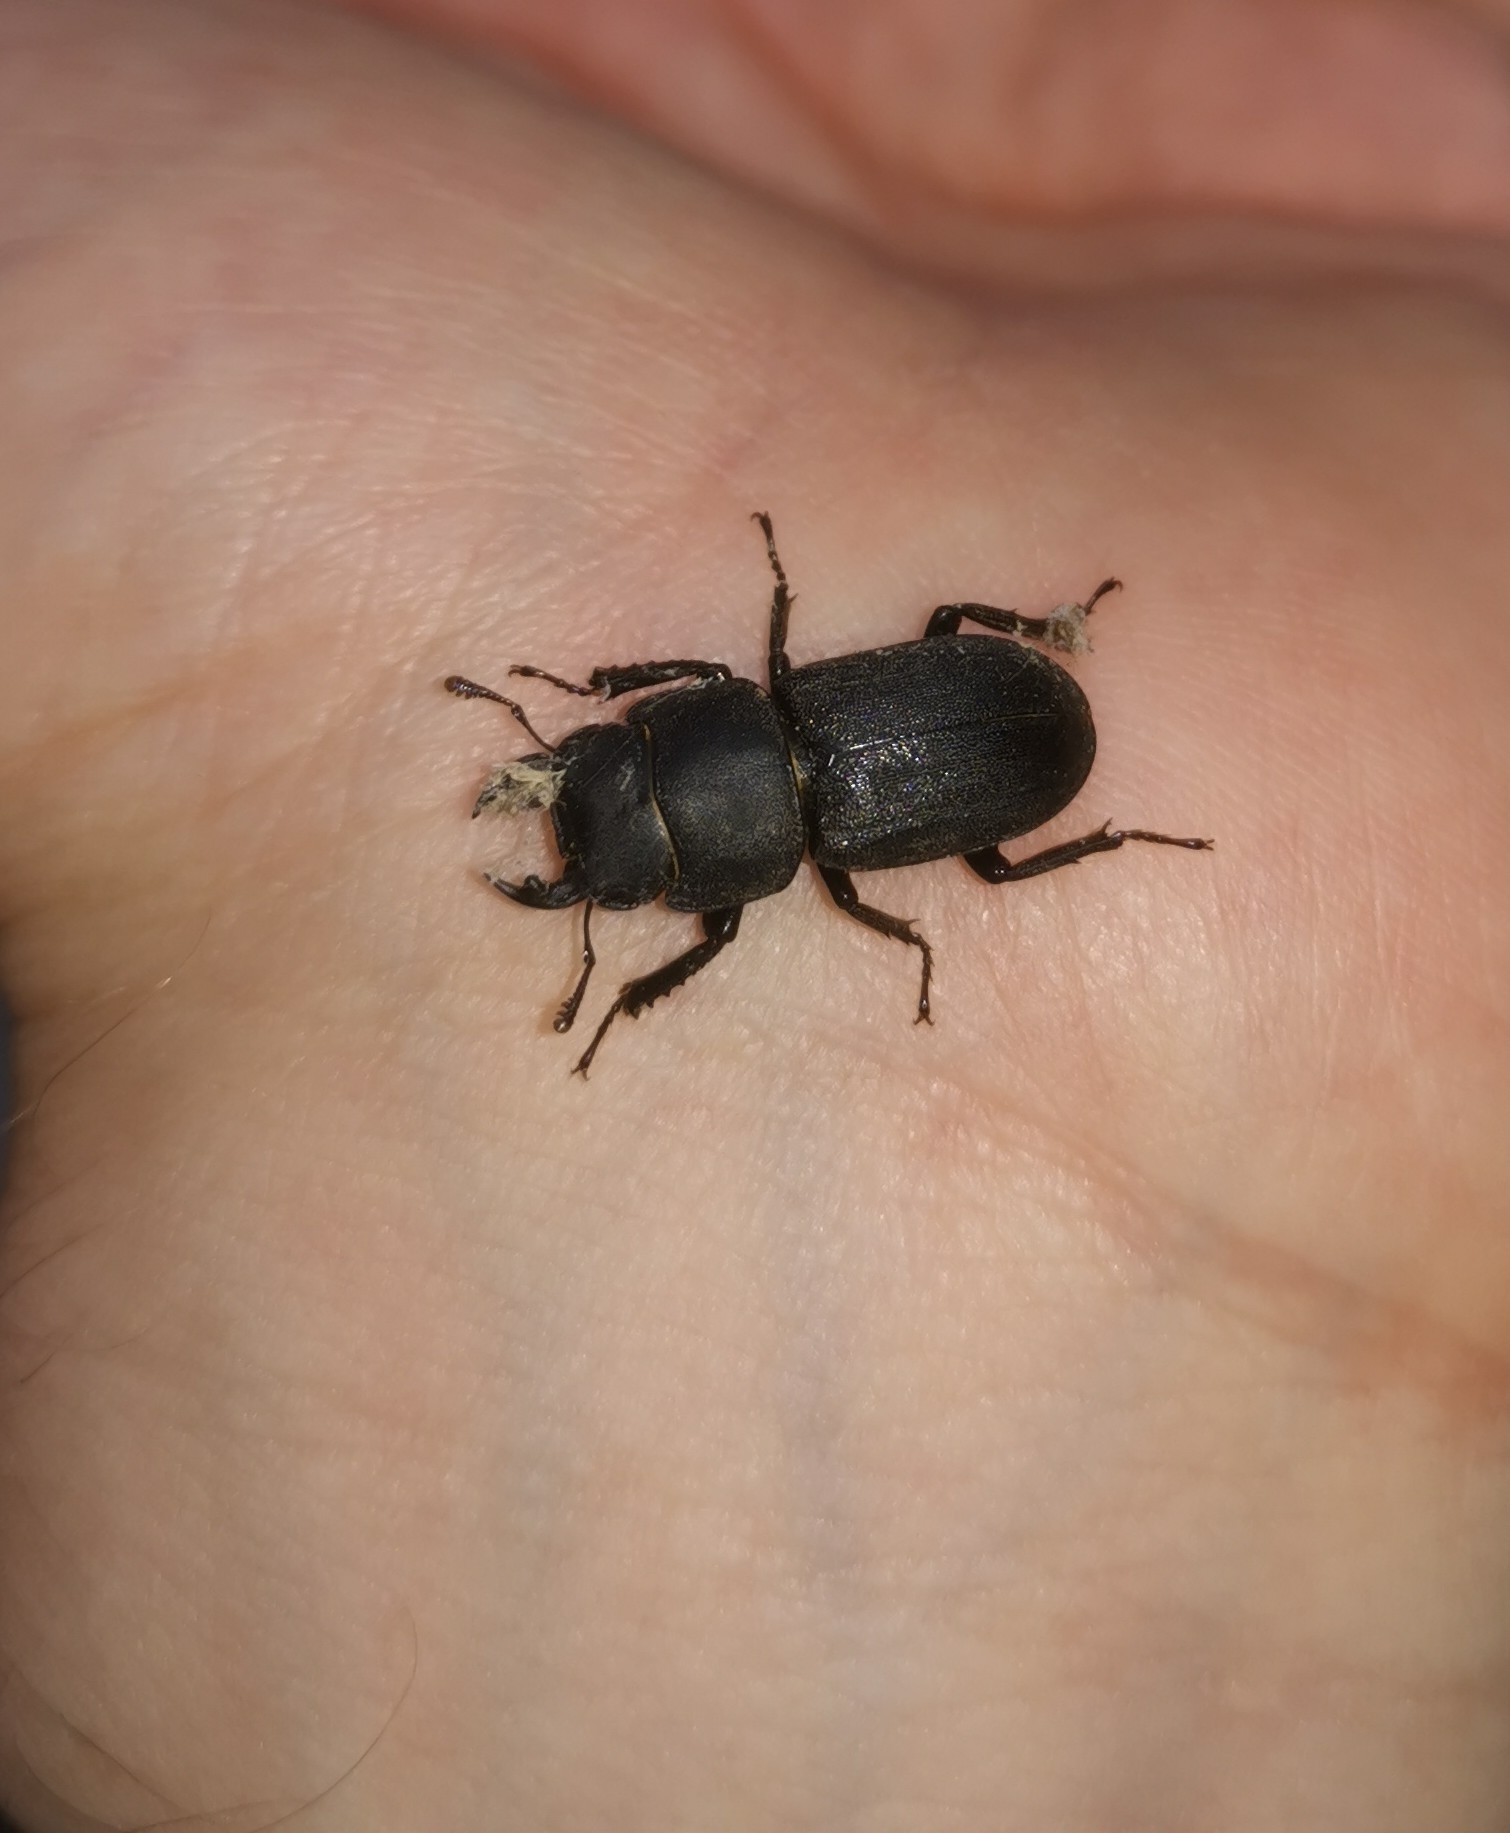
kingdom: Animalia
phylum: Arthropoda
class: Insecta
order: Coleoptera
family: Lucanidae
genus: Dorcus
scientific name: Dorcus parallelipipedus
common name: Lesser stag beetle
